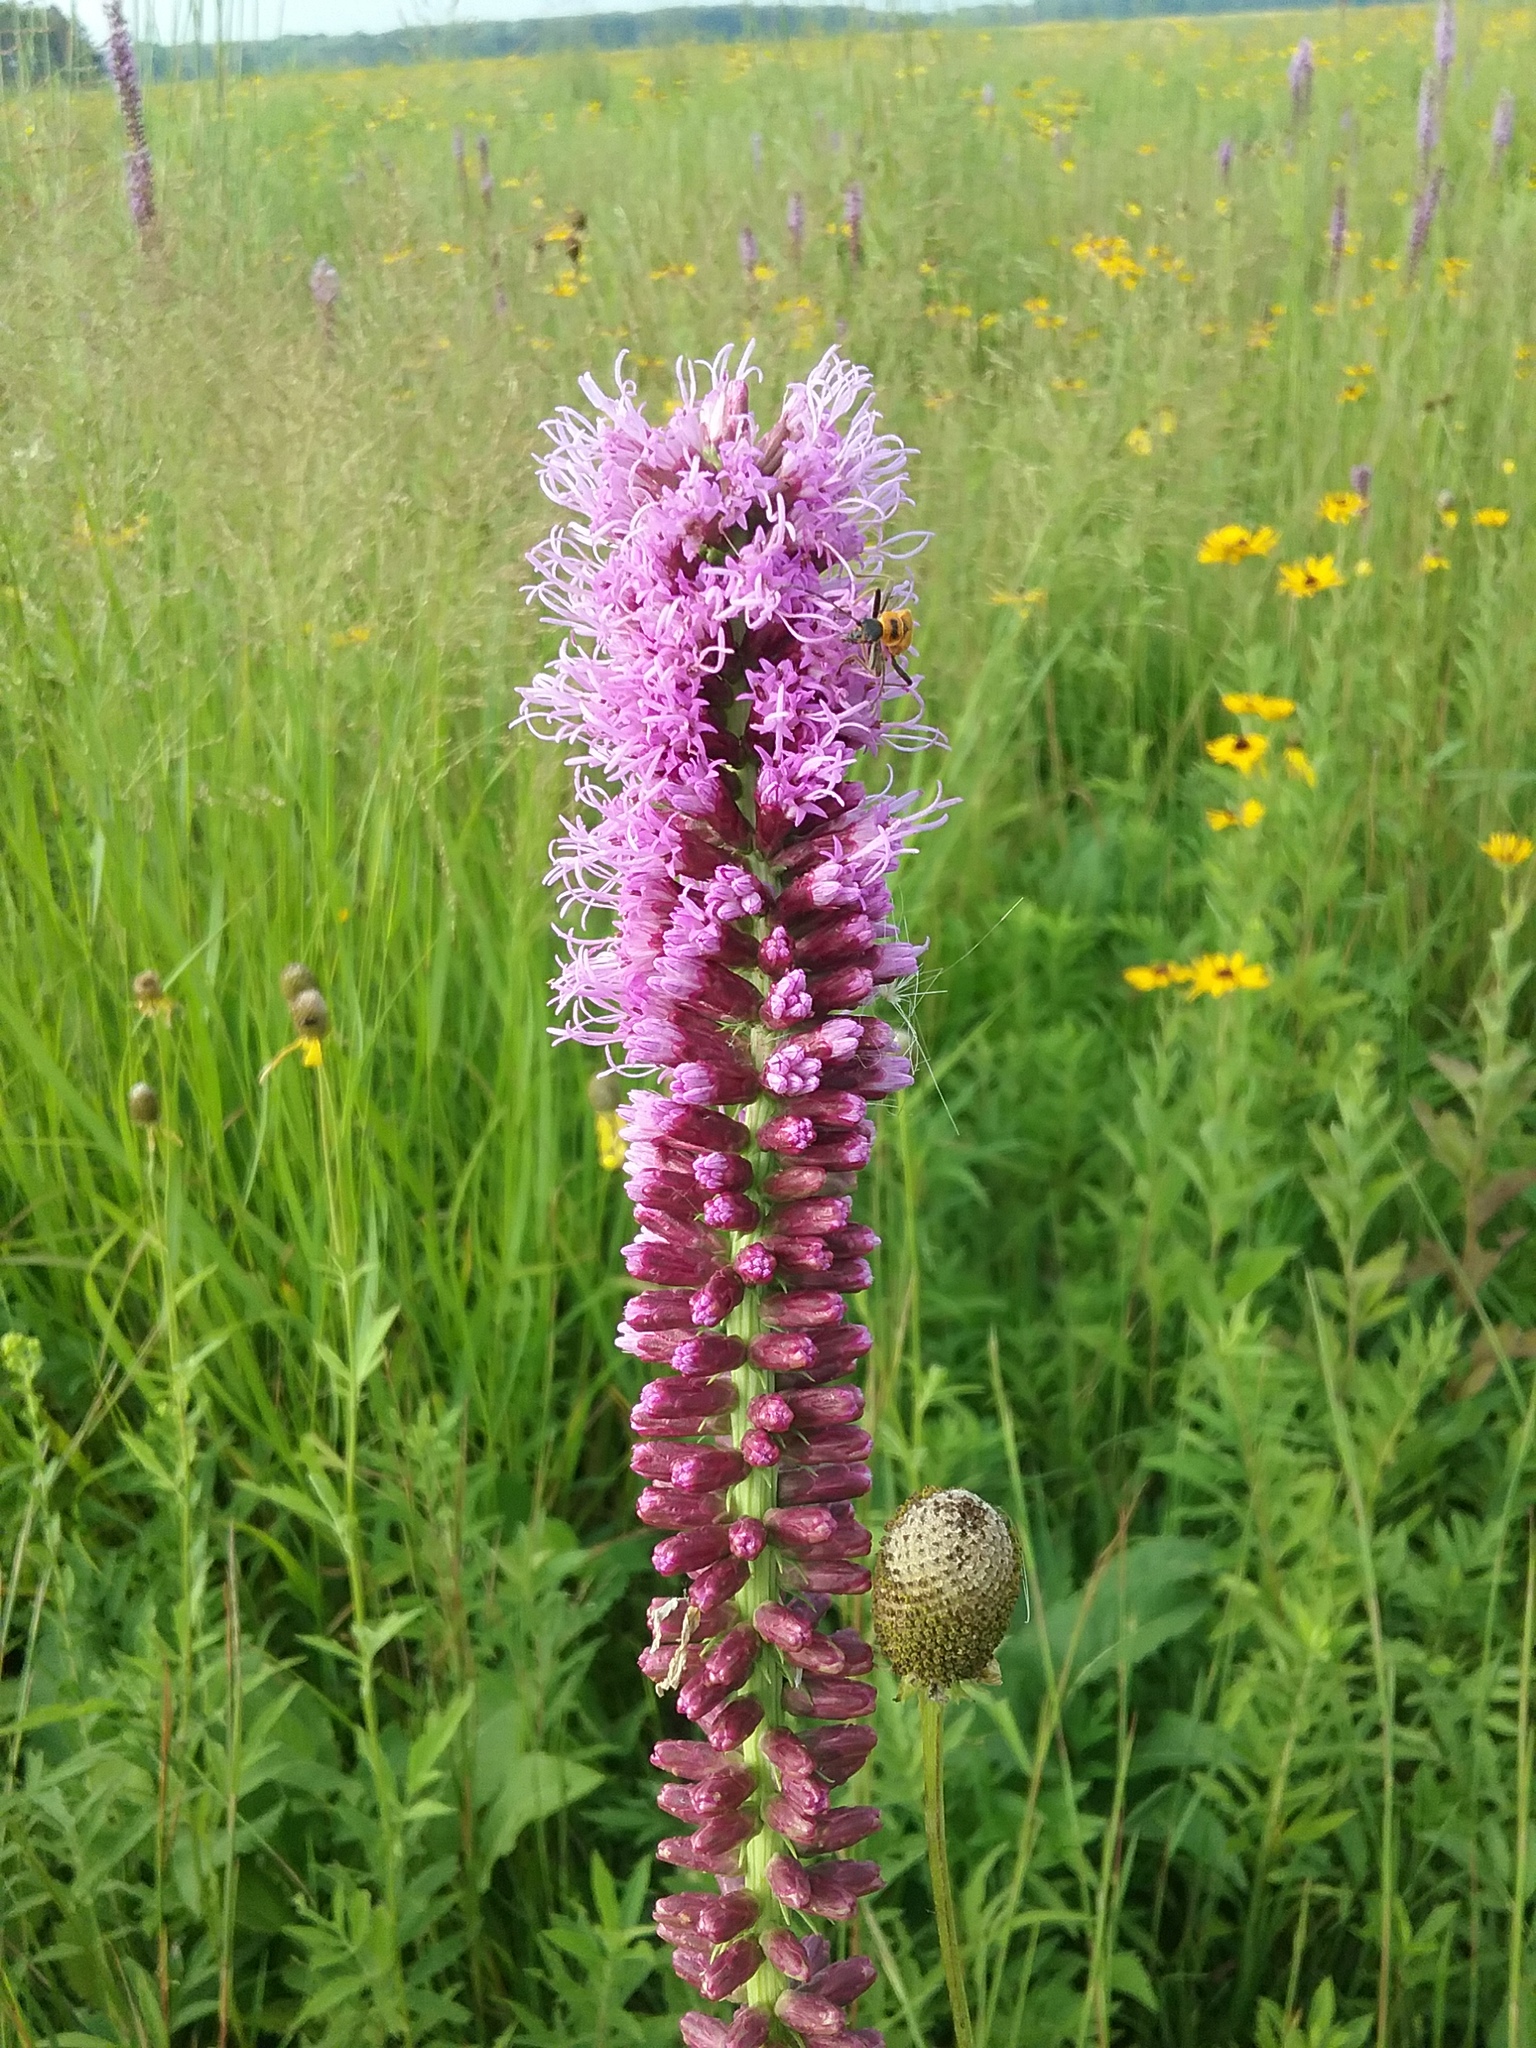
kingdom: Plantae
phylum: Tracheophyta
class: Magnoliopsida
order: Asterales
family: Asteraceae
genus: Liatris
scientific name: Liatris spicata
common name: Florist gayfeather
